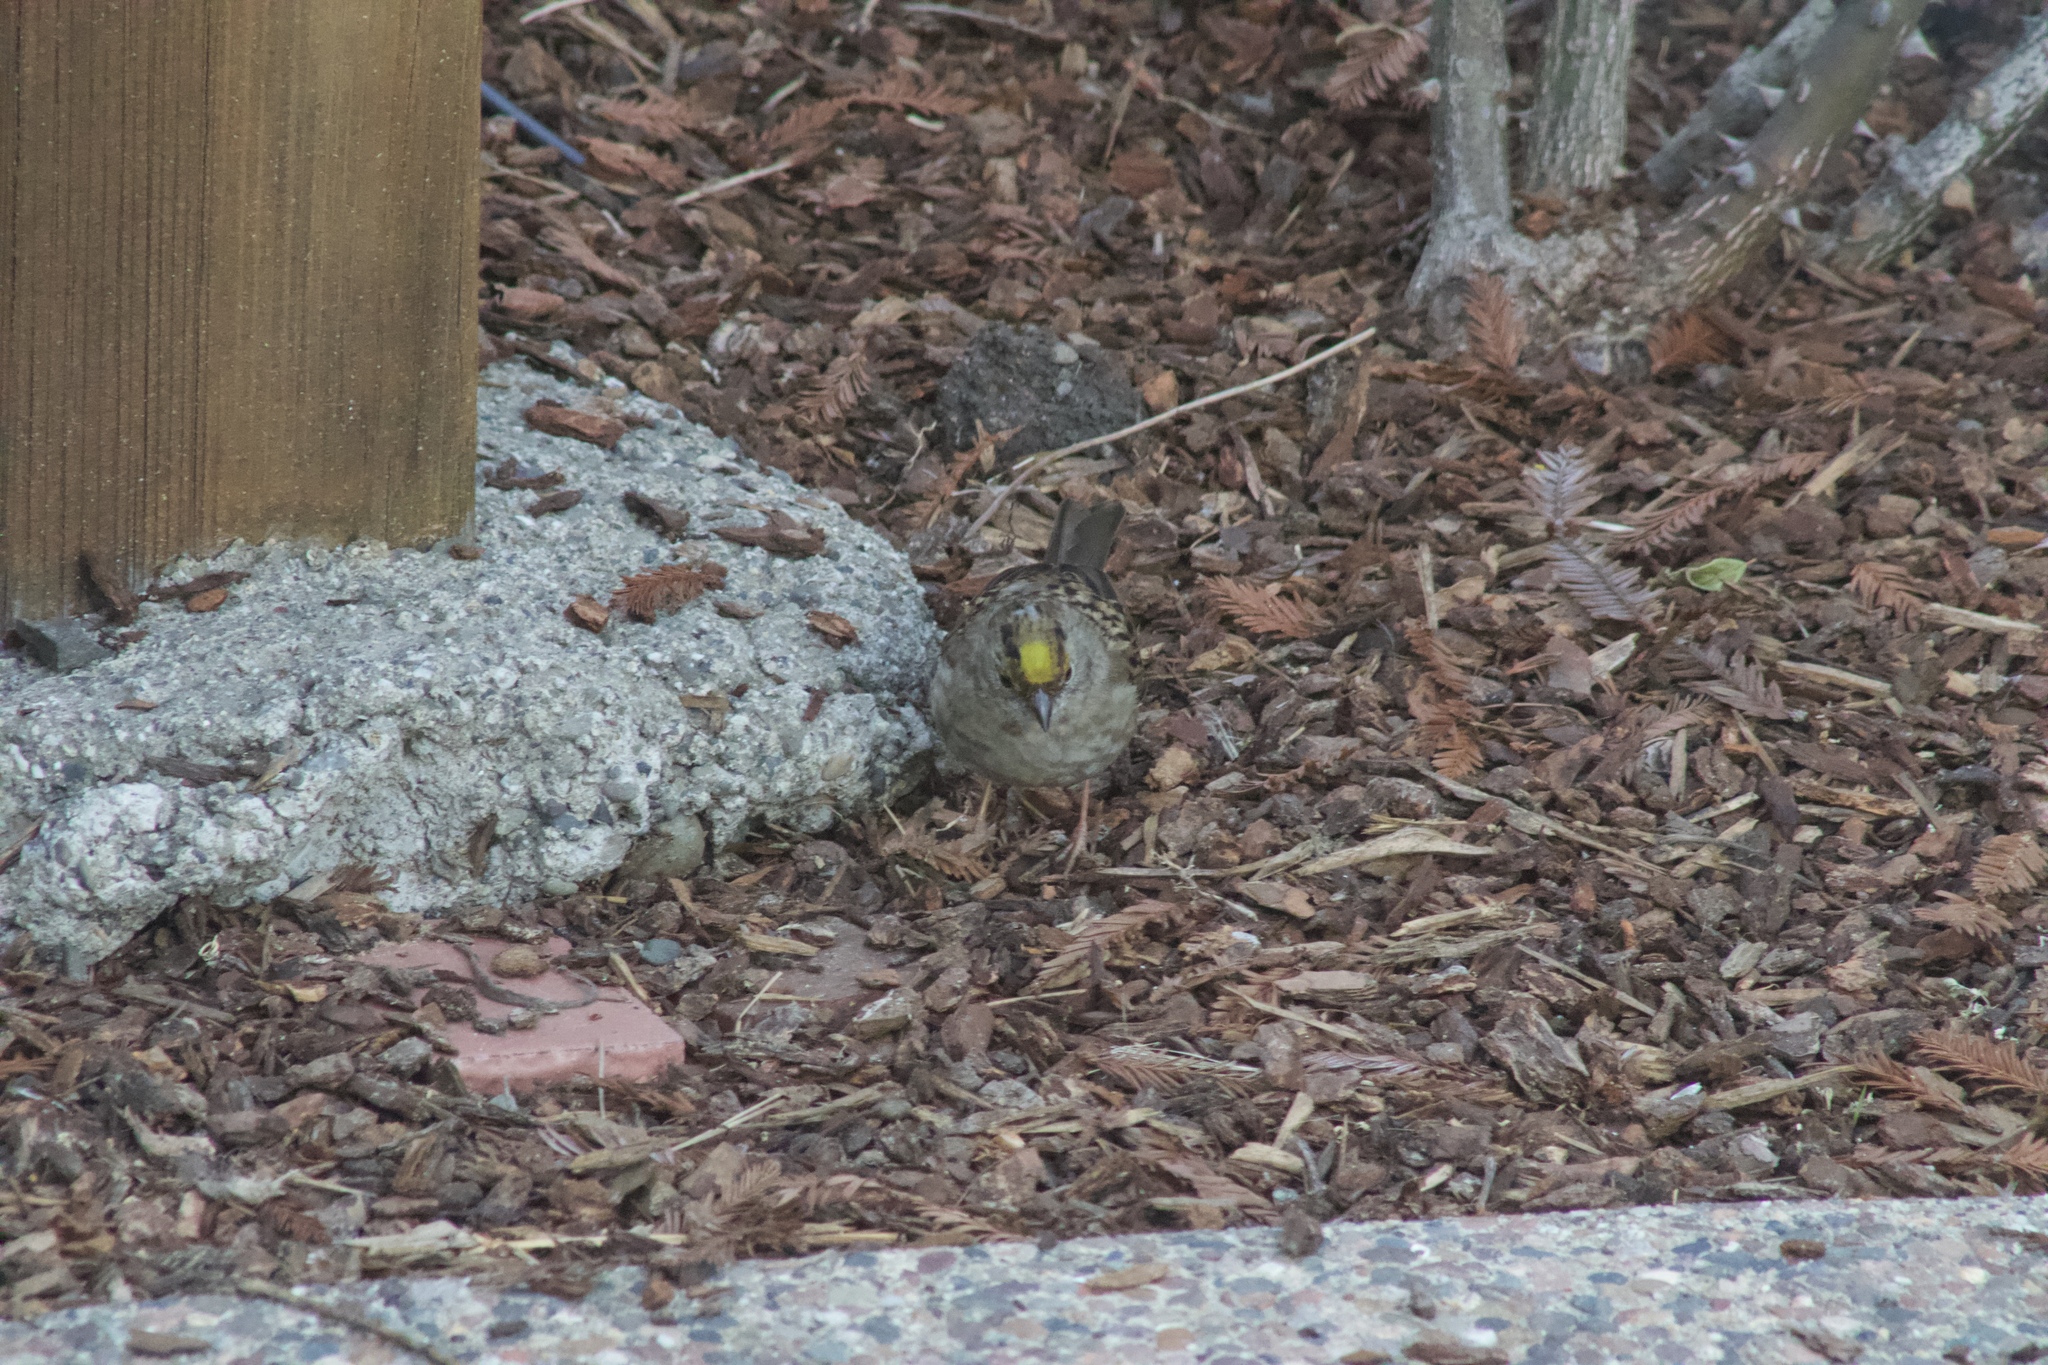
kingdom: Animalia
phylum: Chordata
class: Aves
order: Passeriformes
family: Passerellidae
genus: Zonotrichia
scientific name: Zonotrichia atricapilla
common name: Golden-crowned sparrow
